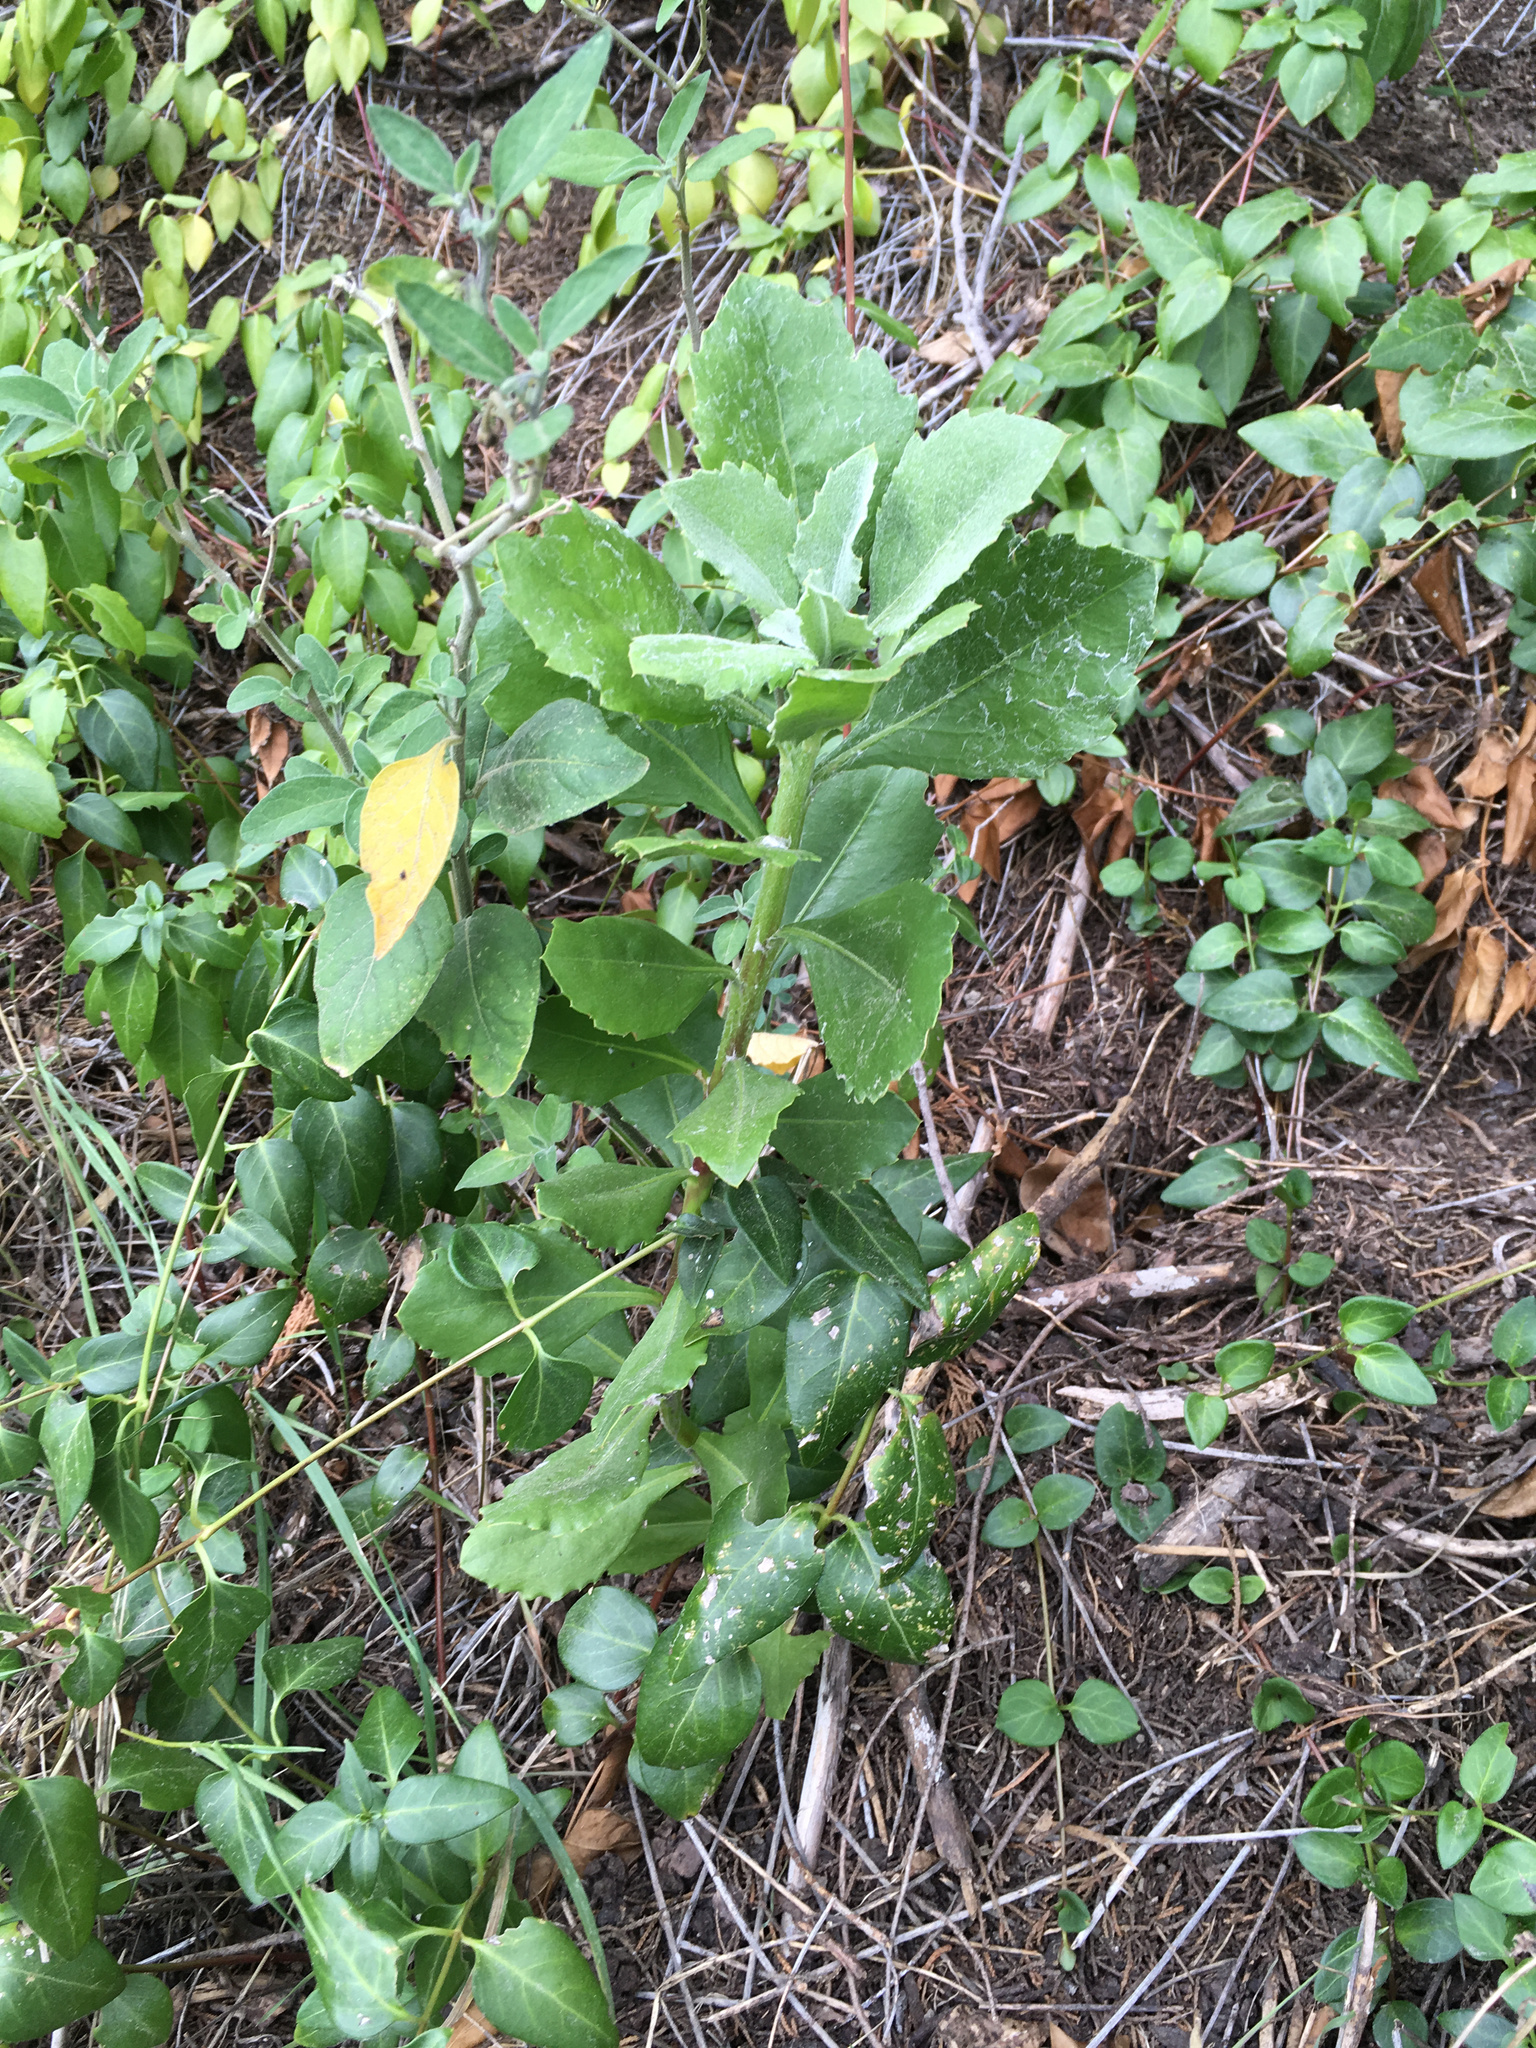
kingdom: Plantae
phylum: Tracheophyta
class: Magnoliopsida
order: Asterales
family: Asteraceae
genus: Osteospermum
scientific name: Osteospermum moniliferum
